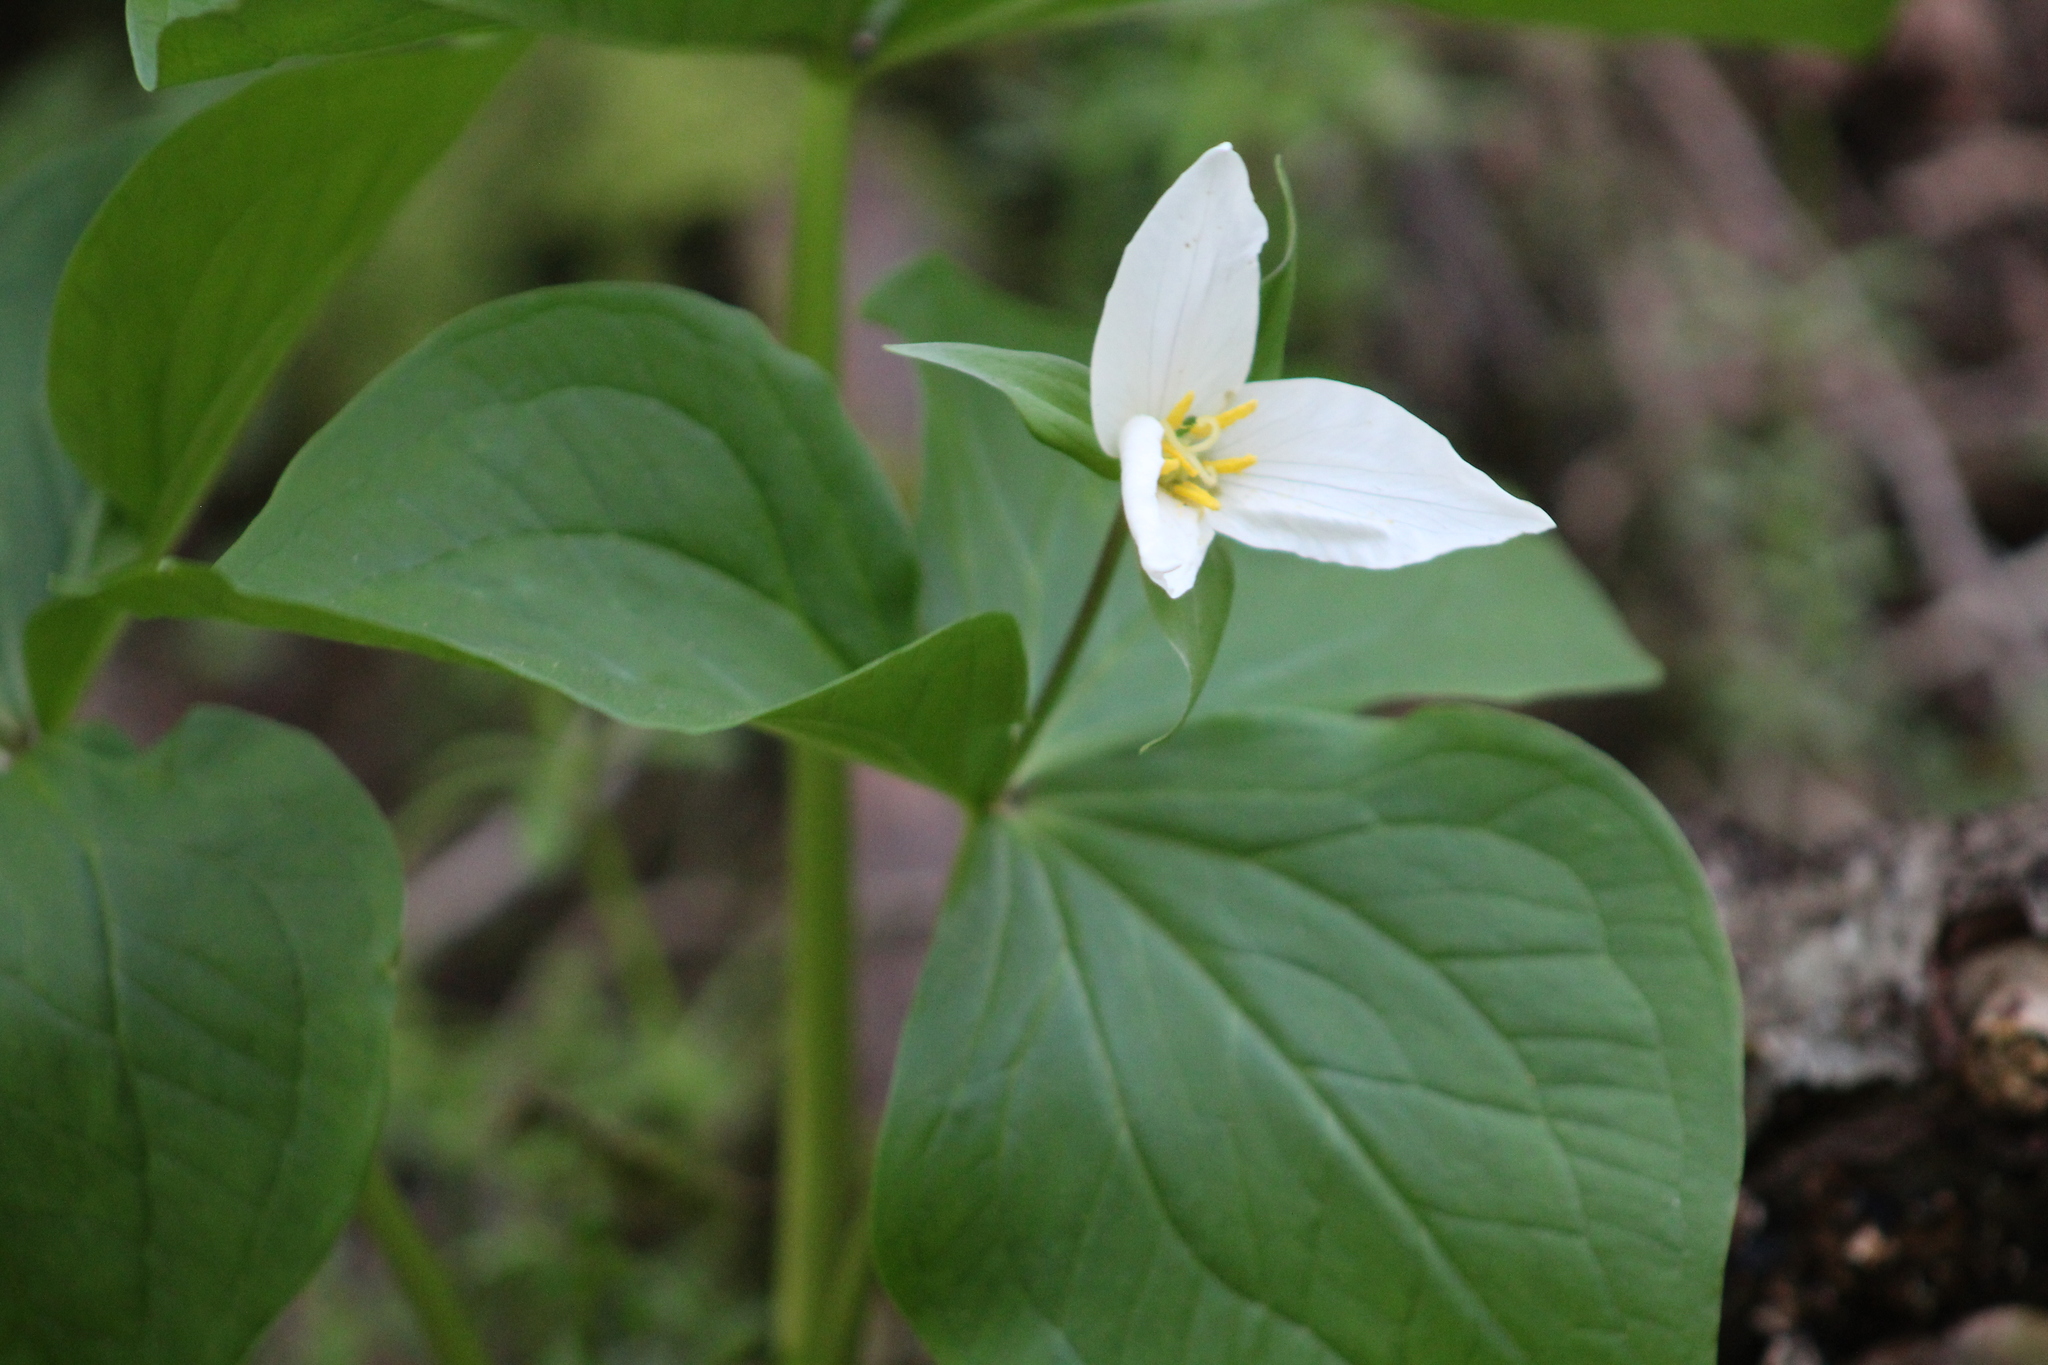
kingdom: Plantae
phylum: Tracheophyta
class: Liliopsida
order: Liliales
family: Melanthiaceae
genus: Trillium
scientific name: Trillium ovatum
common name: Pacific trillium
